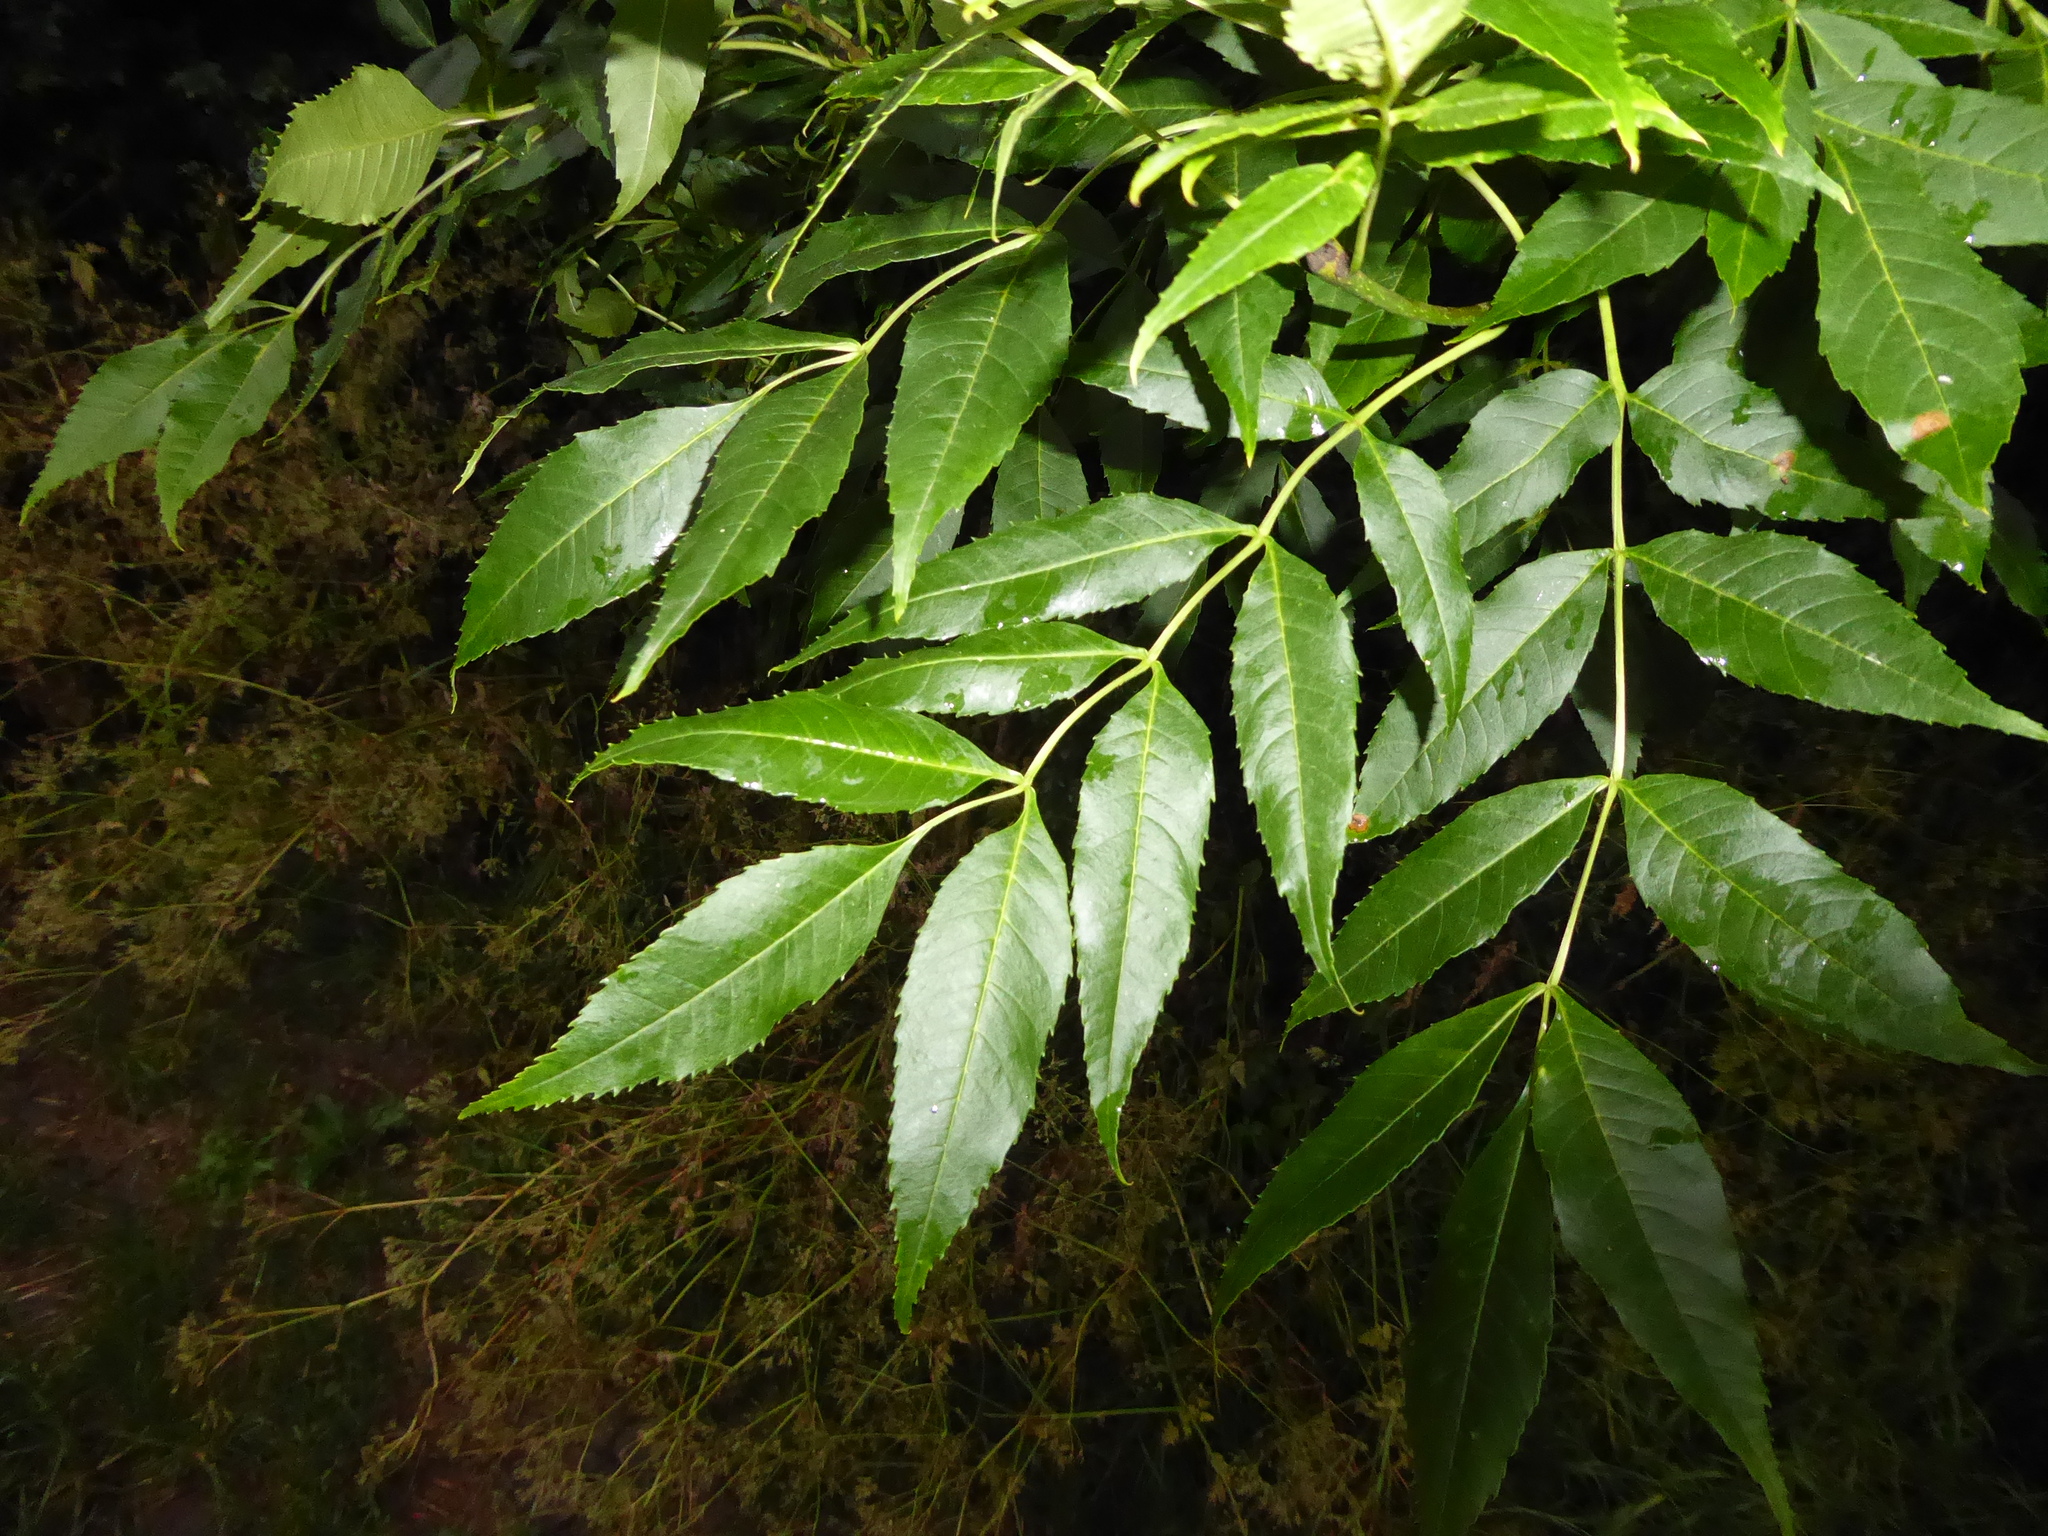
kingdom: Plantae
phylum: Tracheophyta
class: Magnoliopsida
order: Lamiales
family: Oleaceae
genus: Fraxinus
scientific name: Fraxinus excelsior
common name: European ash
